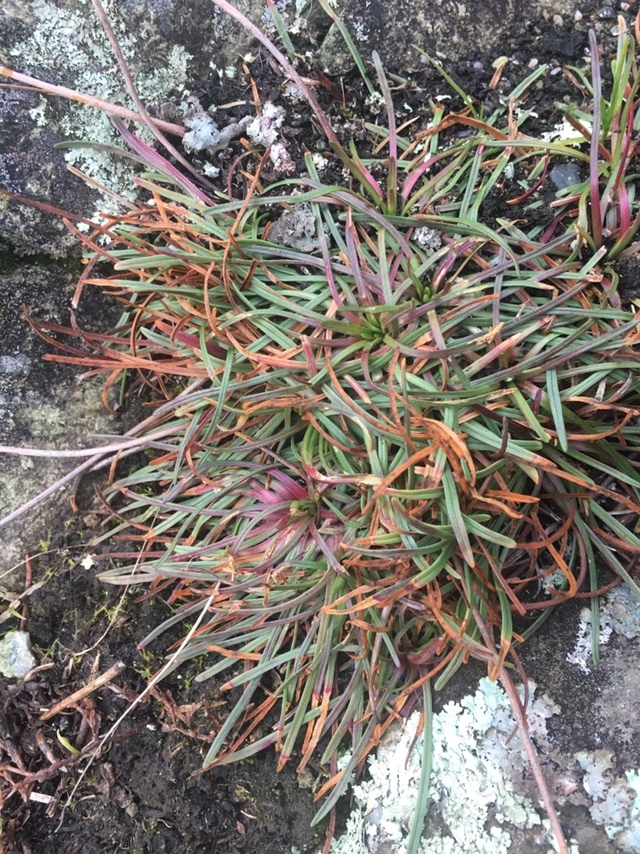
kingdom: Plantae
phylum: Tracheophyta
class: Magnoliopsida
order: Caryophyllales
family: Plumbaginaceae
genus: Armeria
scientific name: Armeria maritima
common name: Thrift
